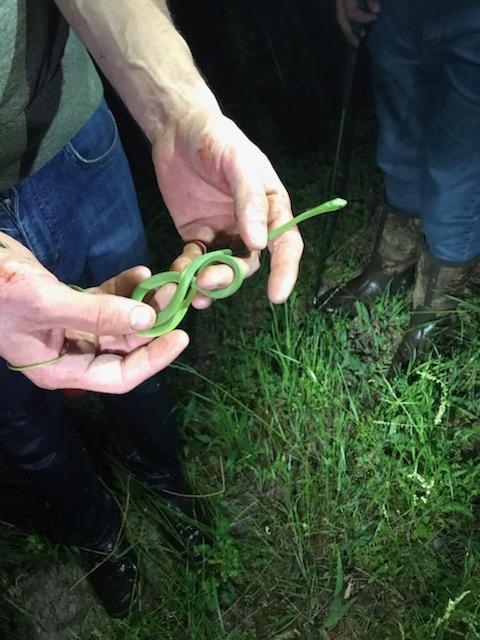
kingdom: Animalia
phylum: Chordata
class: Squamata
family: Colubridae
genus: Opheodrys
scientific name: Opheodrys aestivus
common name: Rough greensnake
